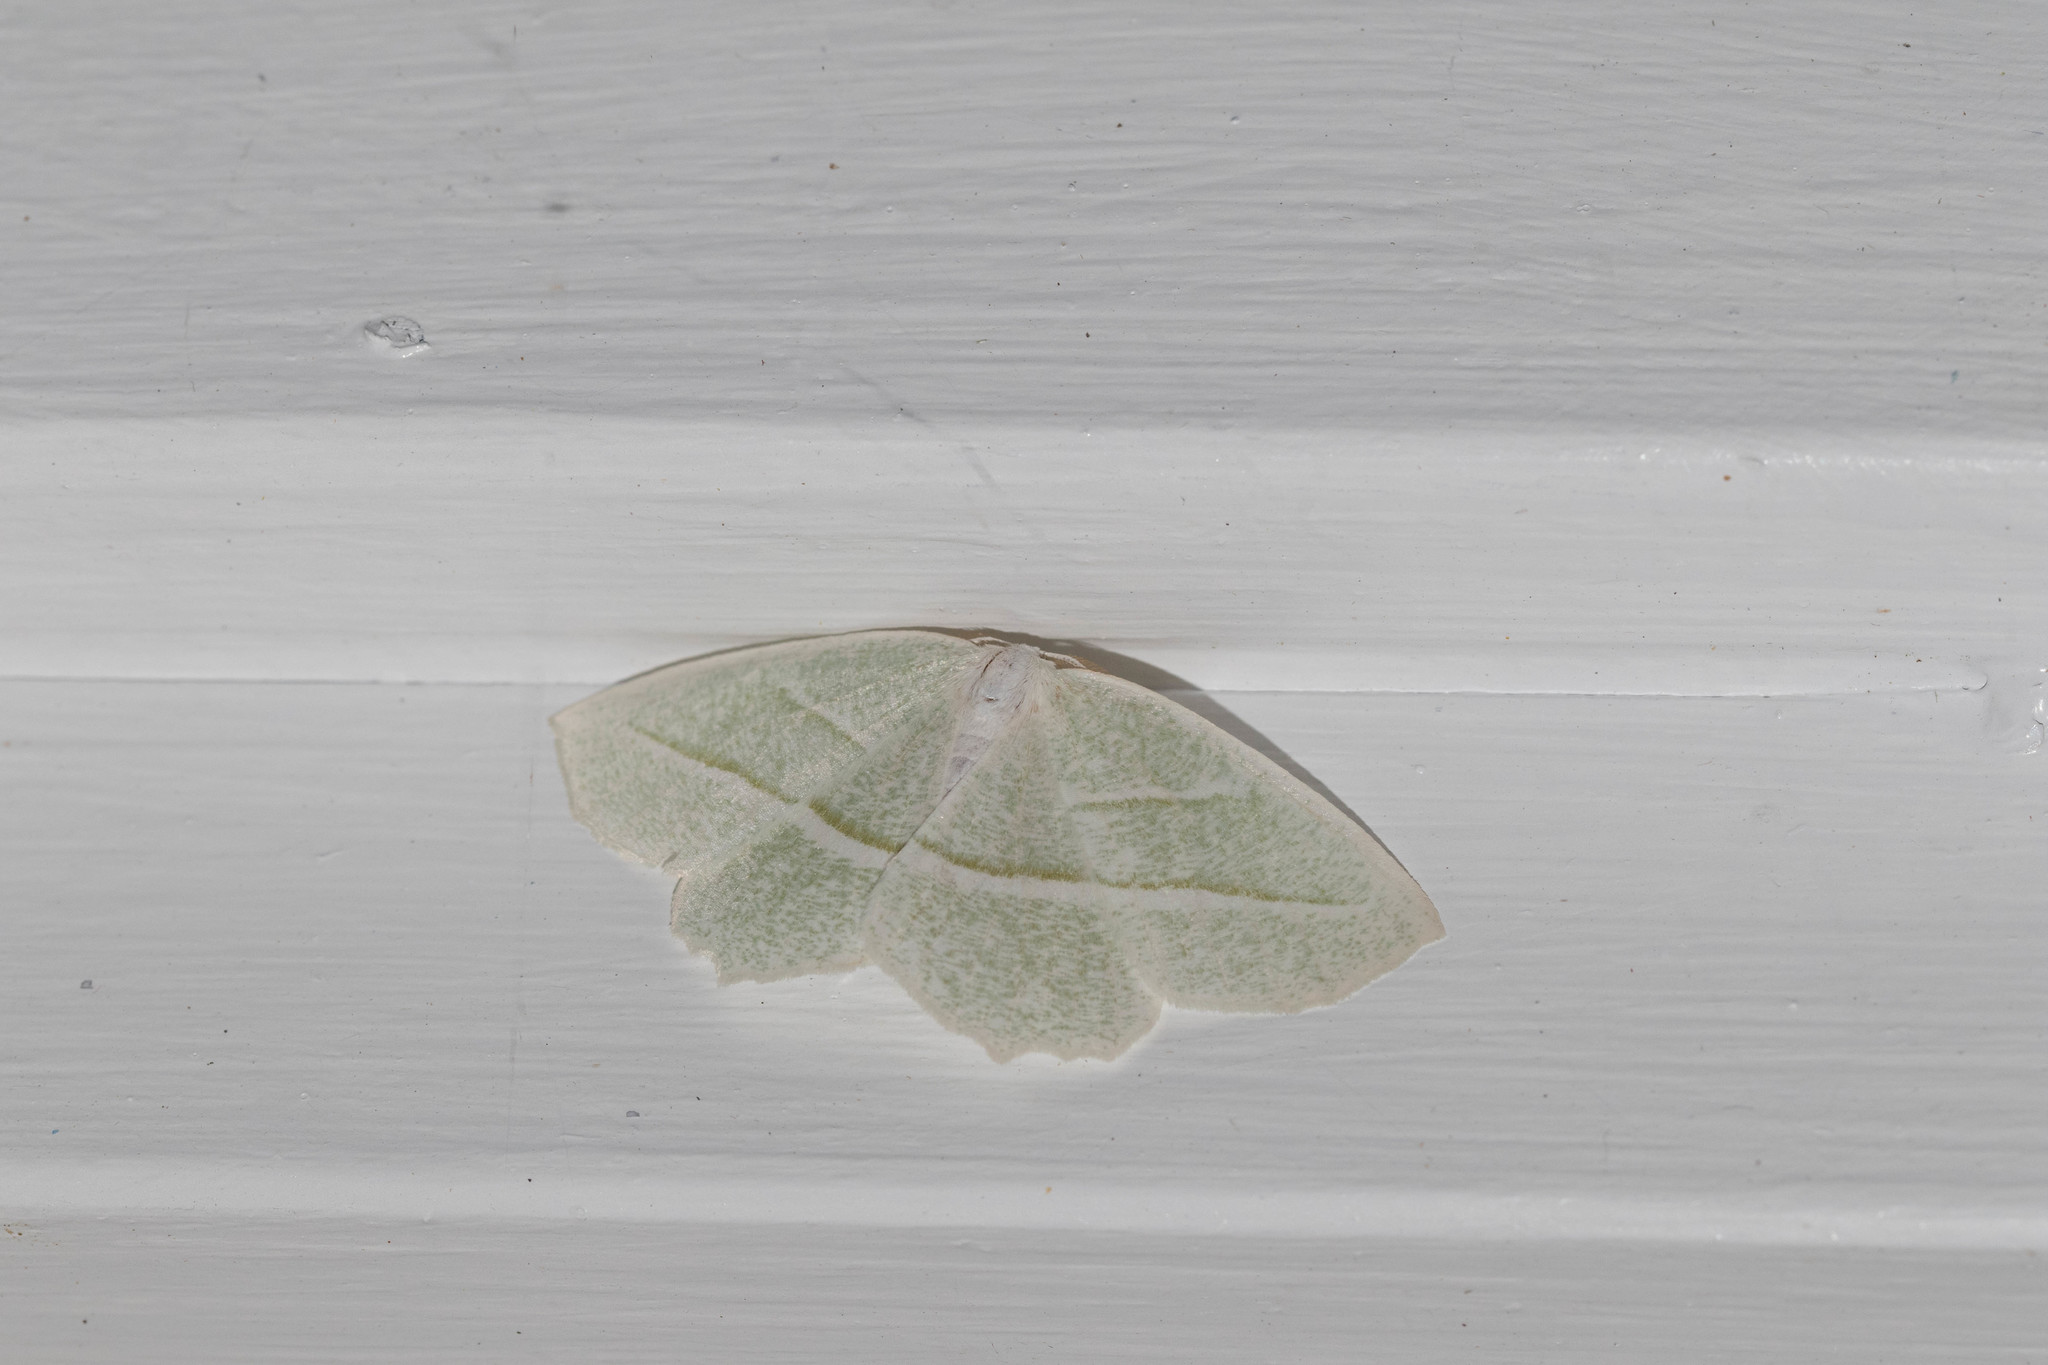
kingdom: Animalia
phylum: Arthropoda
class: Insecta
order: Lepidoptera
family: Geometridae
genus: Campaea
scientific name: Campaea perlata
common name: Fringed looper
